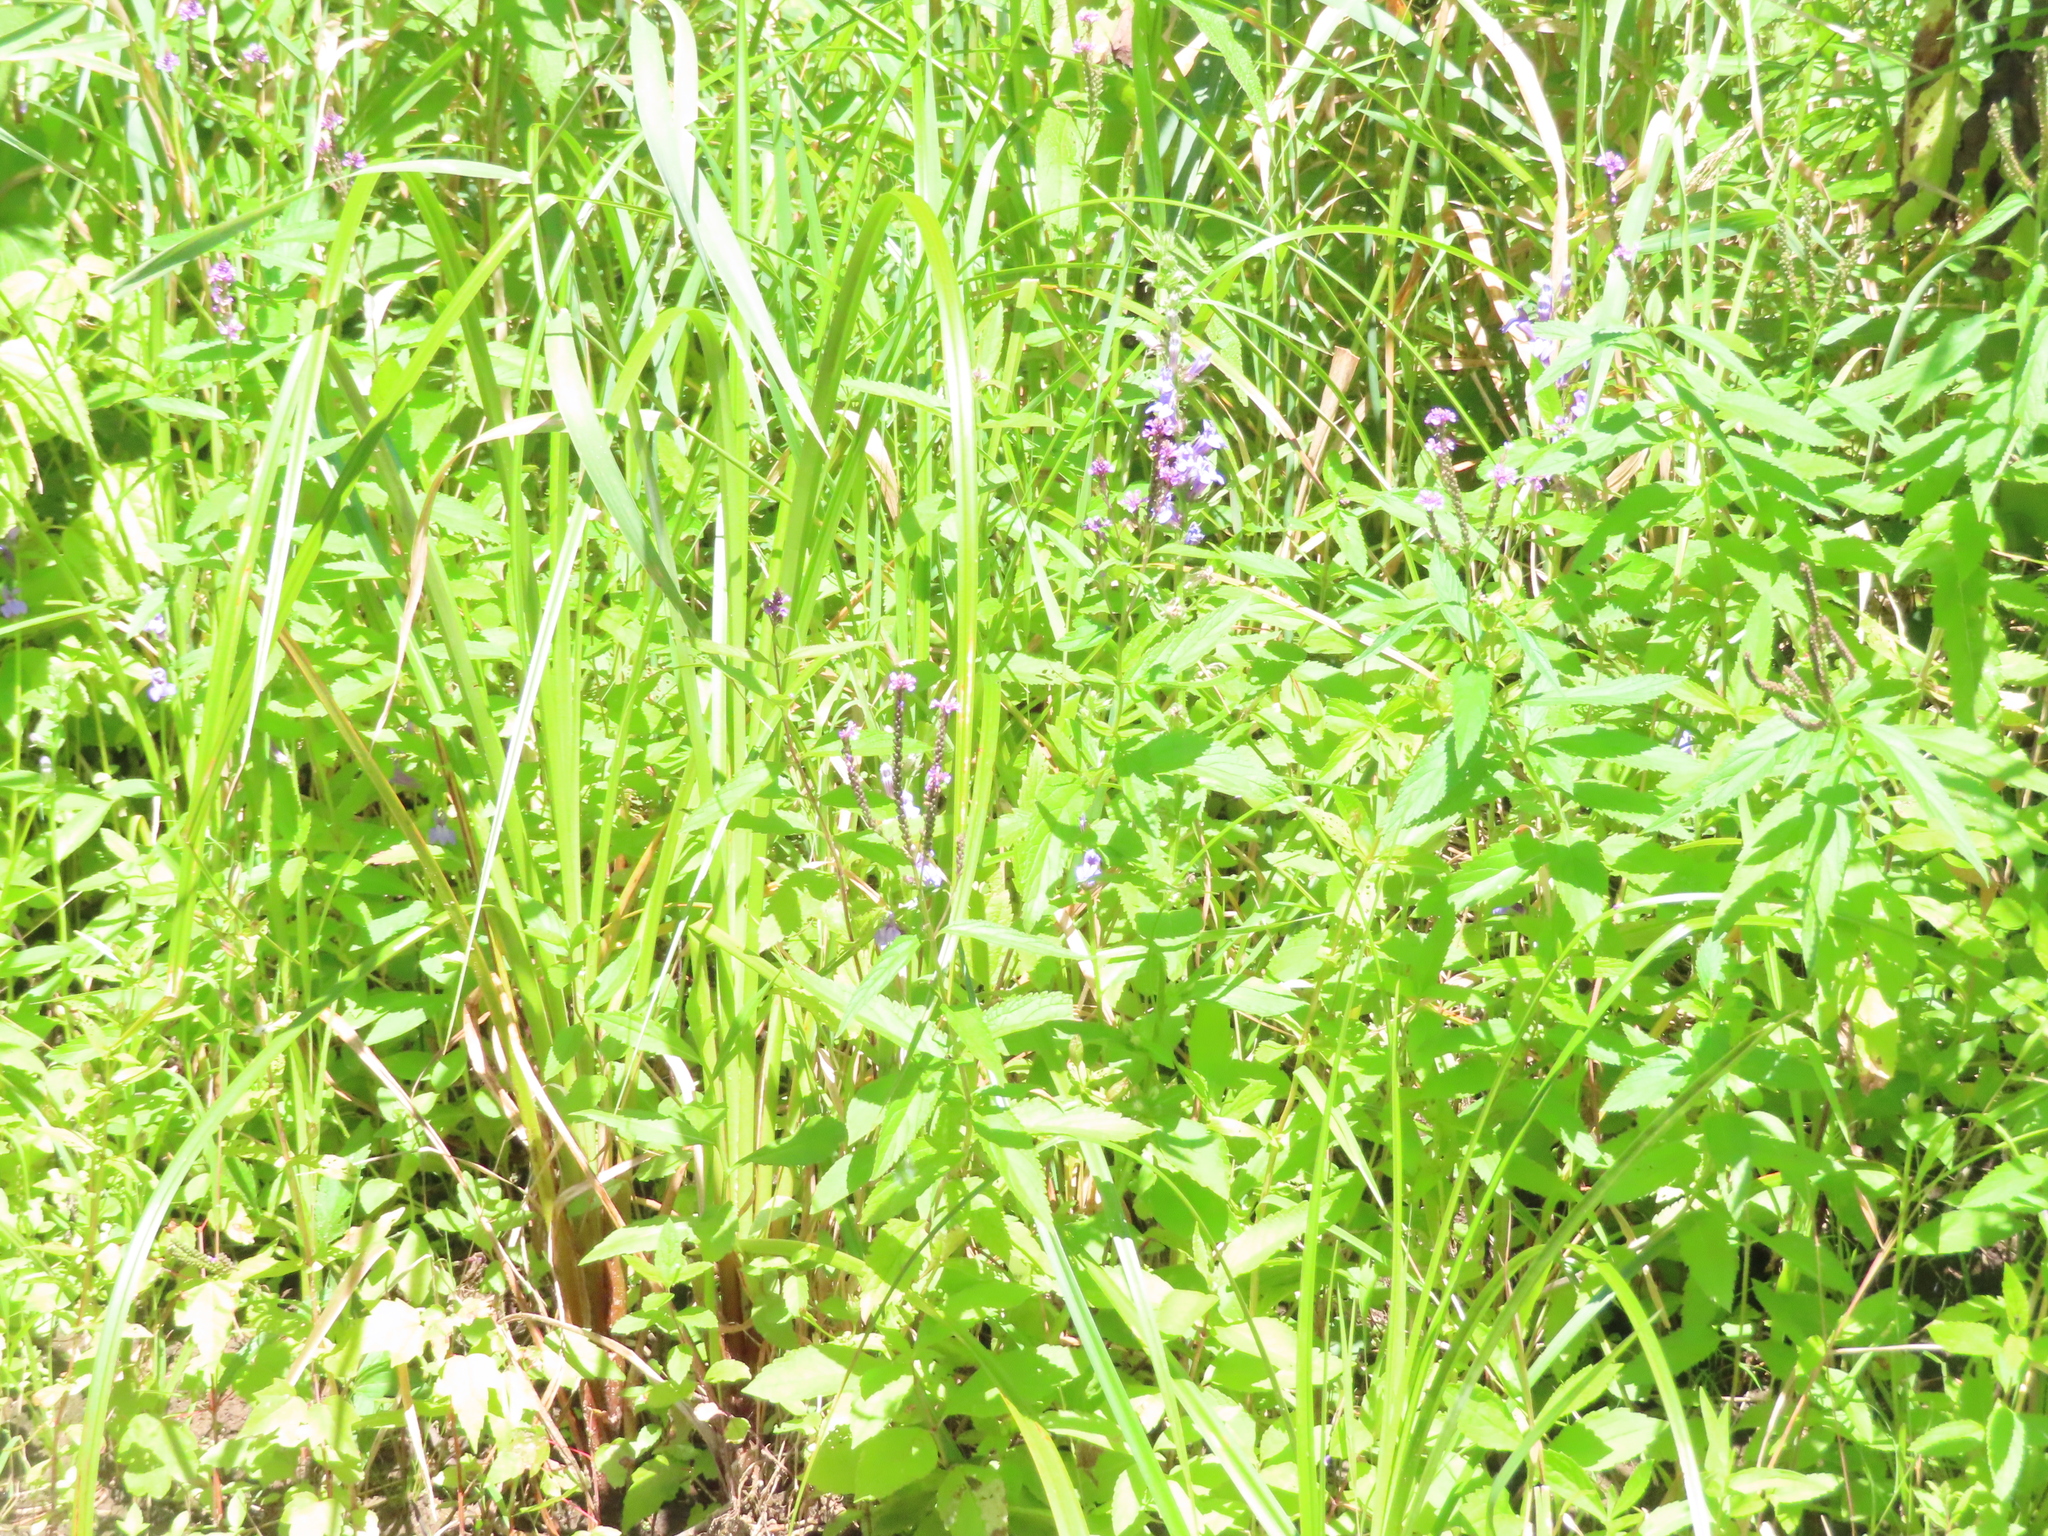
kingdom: Plantae
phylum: Tracheophyta
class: Magnoliopsida
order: Lamiales
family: Verbenaceae
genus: Verbena
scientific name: Verbena hastata
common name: American blue vervain
